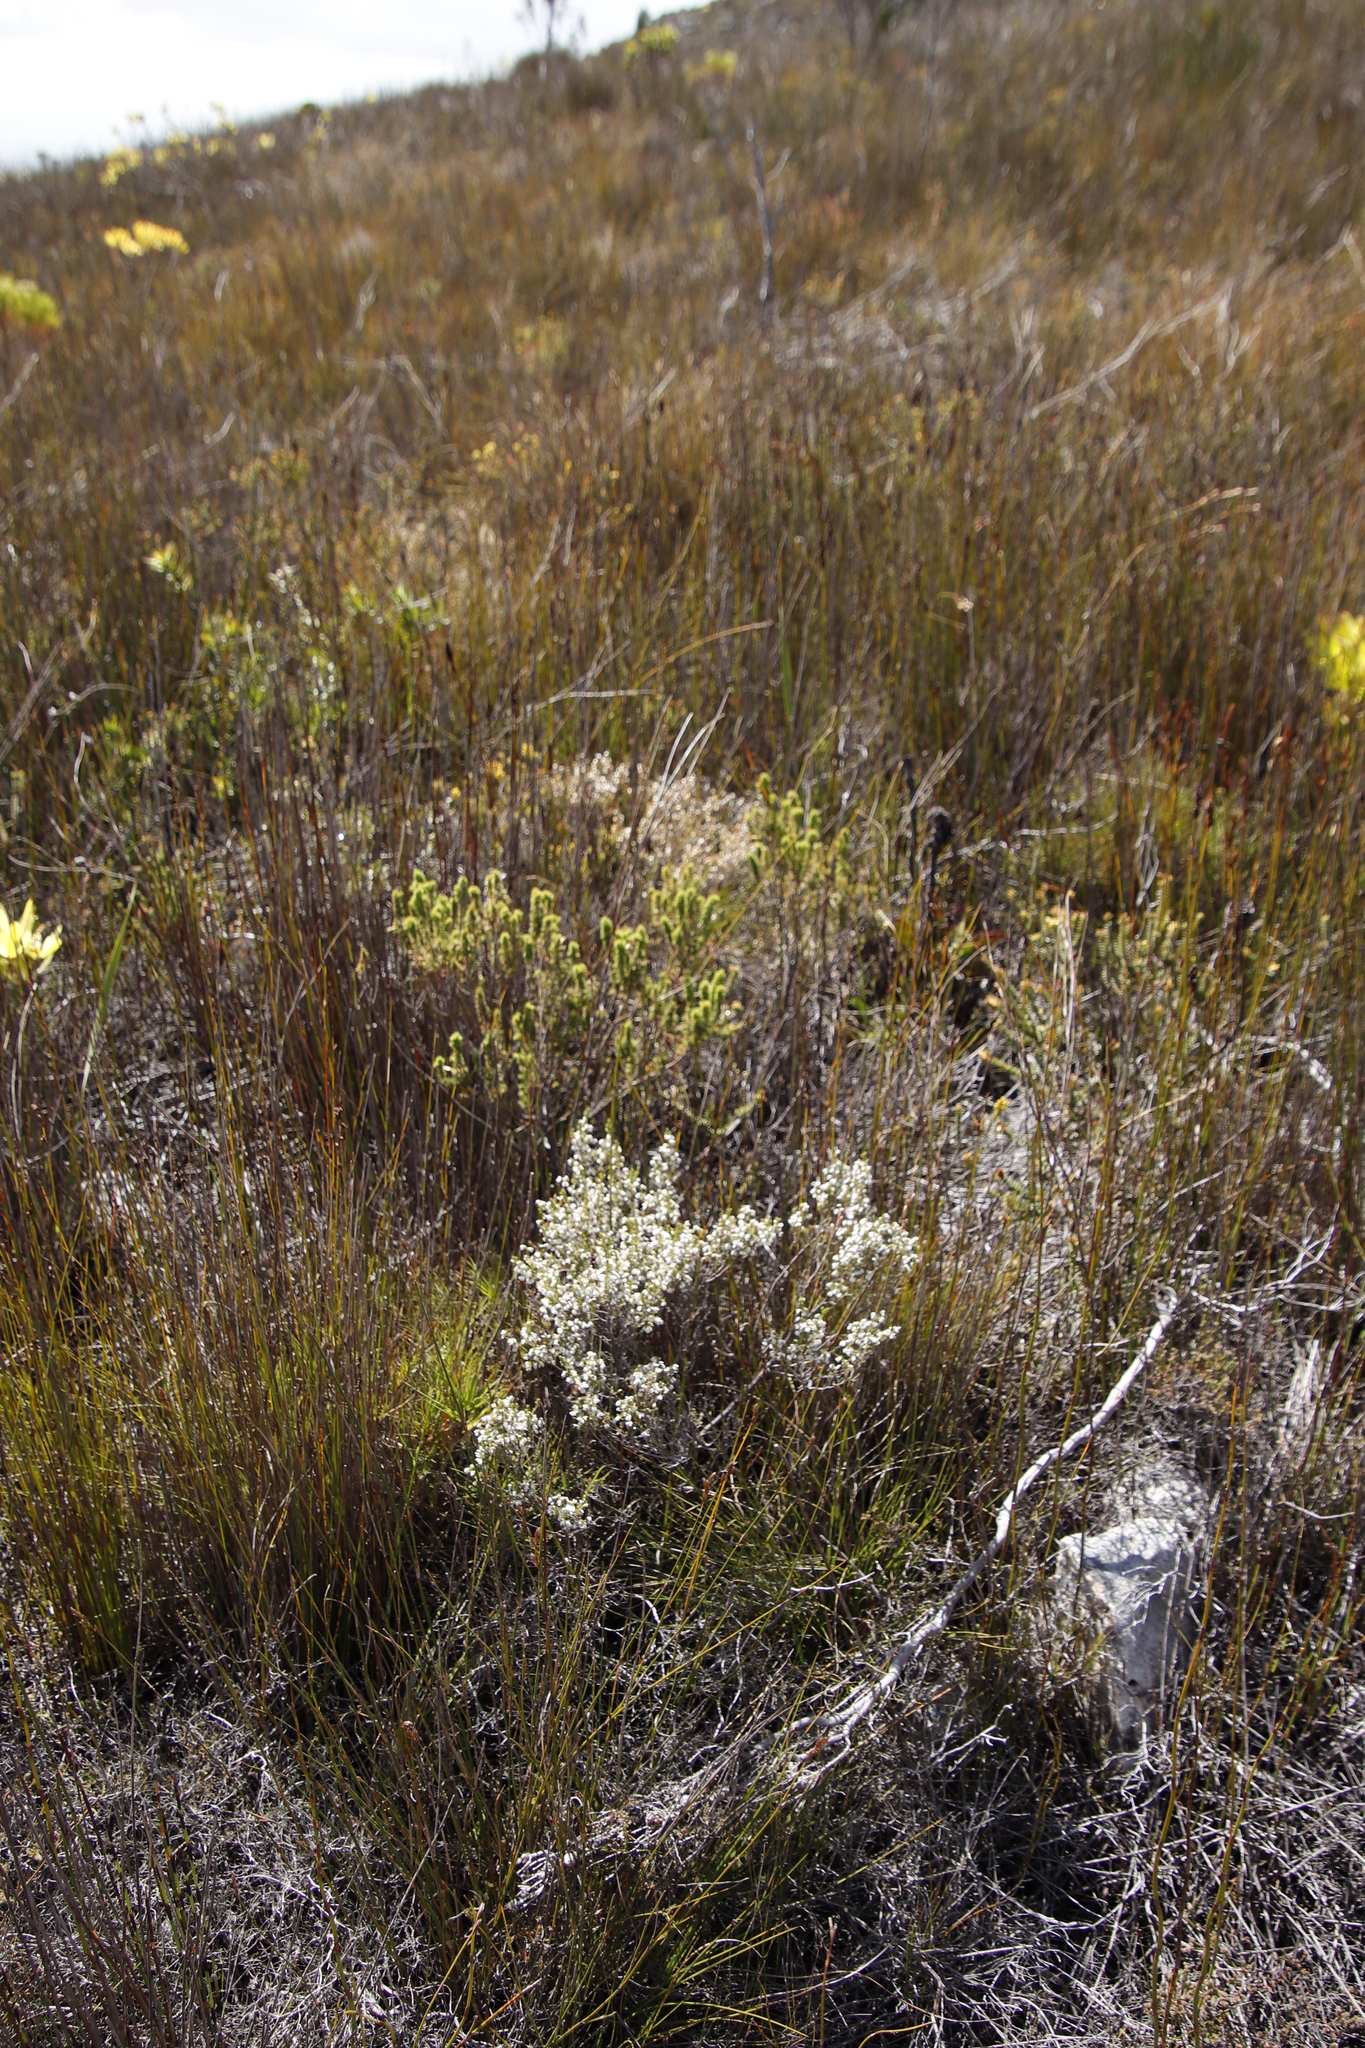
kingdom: Plantae
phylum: Tracheophyta
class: Magnoliopsida
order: Ericales
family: Ericaceae
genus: Erica
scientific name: Erica imbricata
